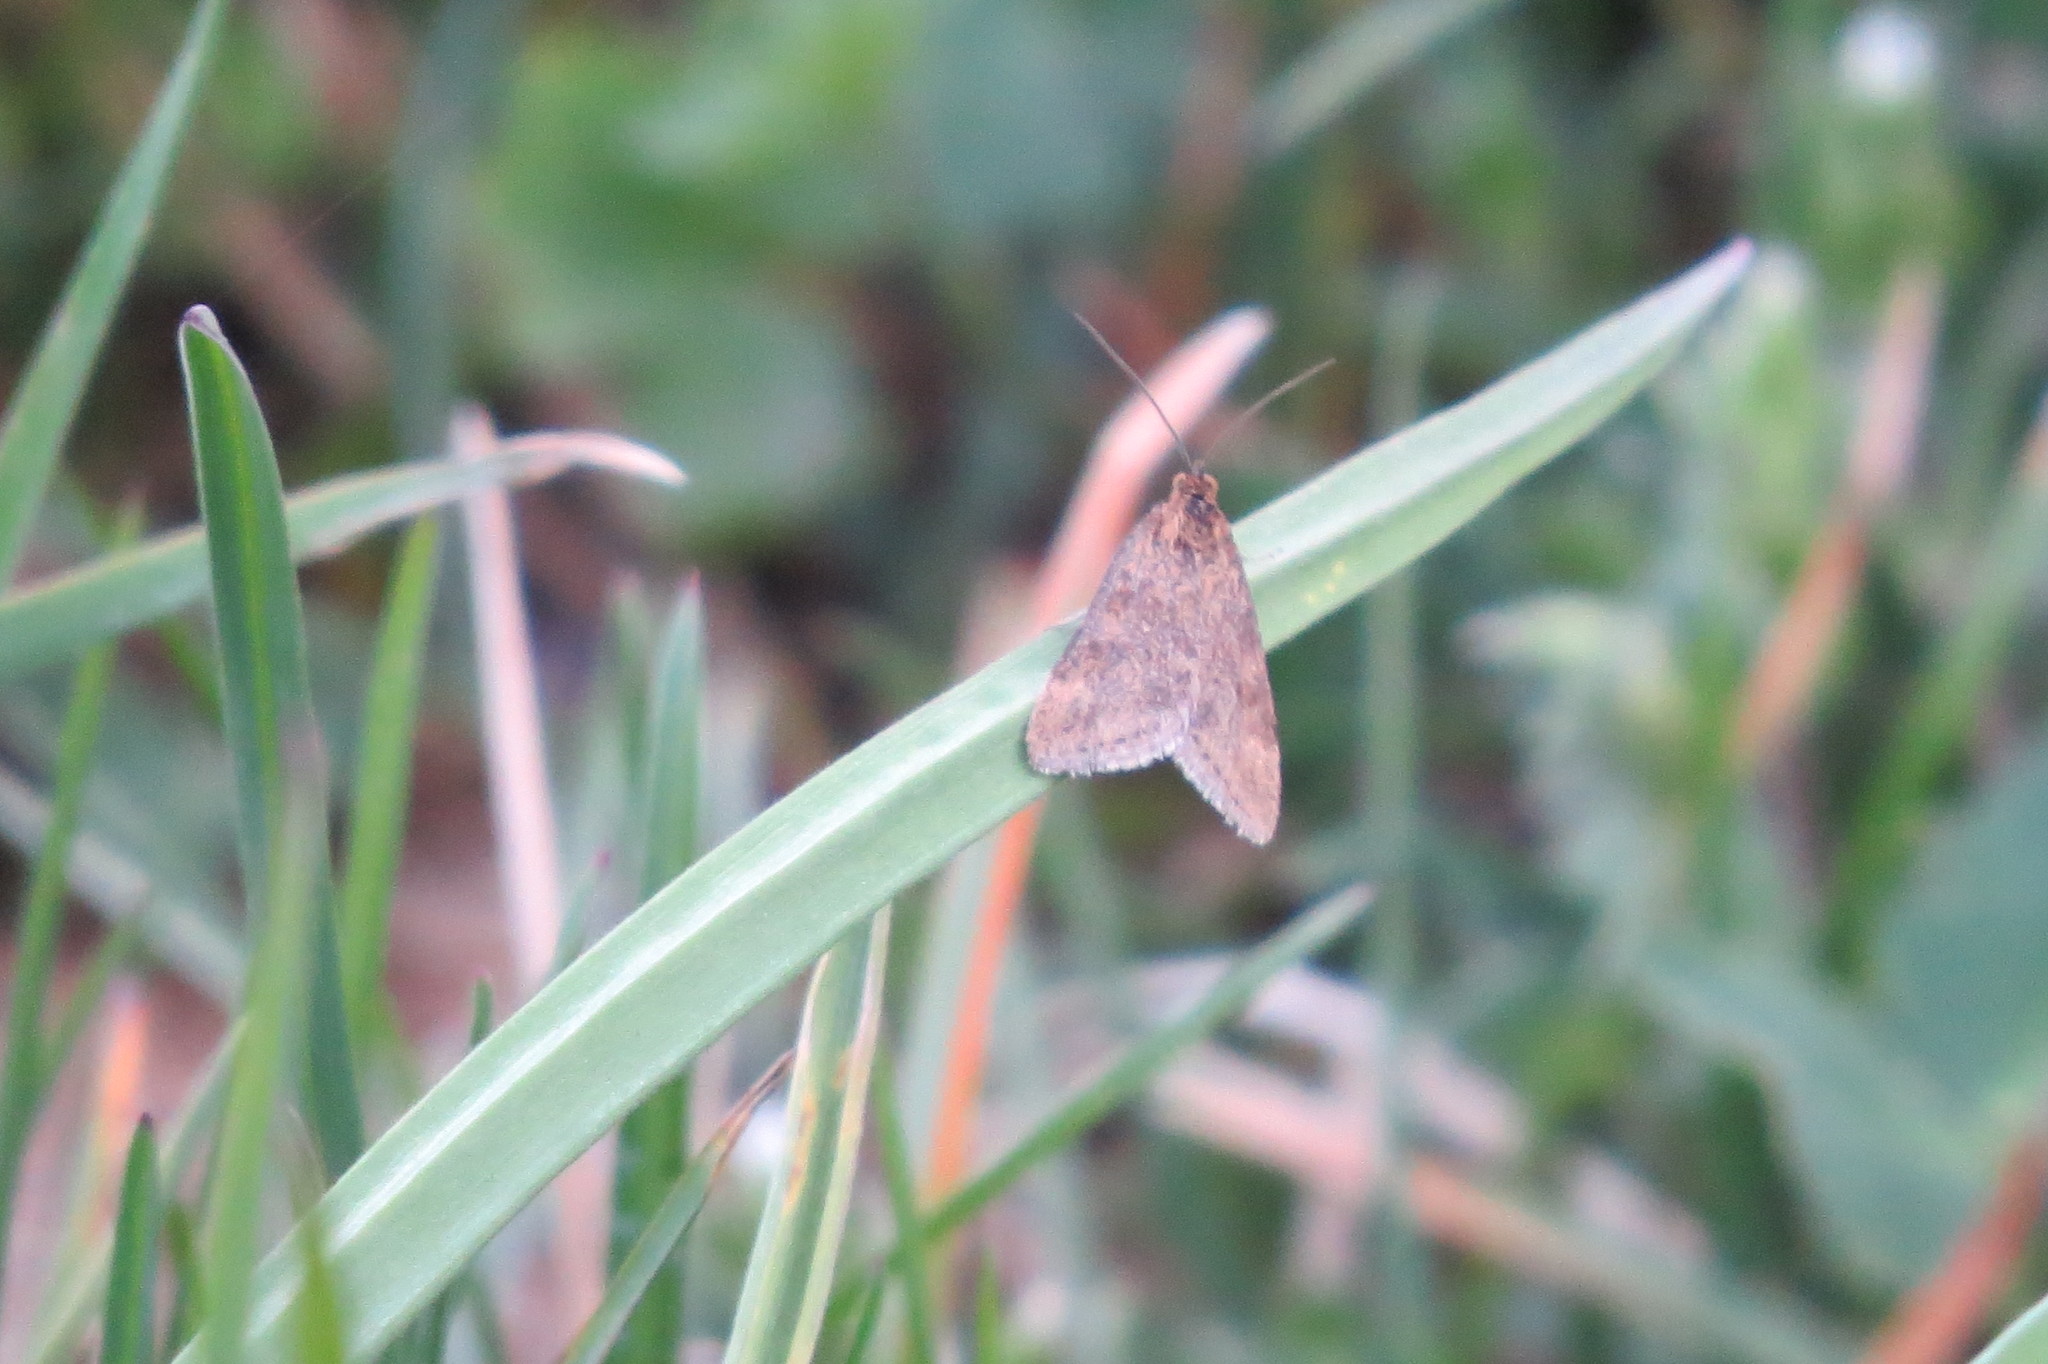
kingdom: Animalia
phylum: Arthropoda
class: Insecta
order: Lepidoptera
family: Crambidae
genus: Pyrausta
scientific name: Pyrausta despicata
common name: Straw-barred pearl
